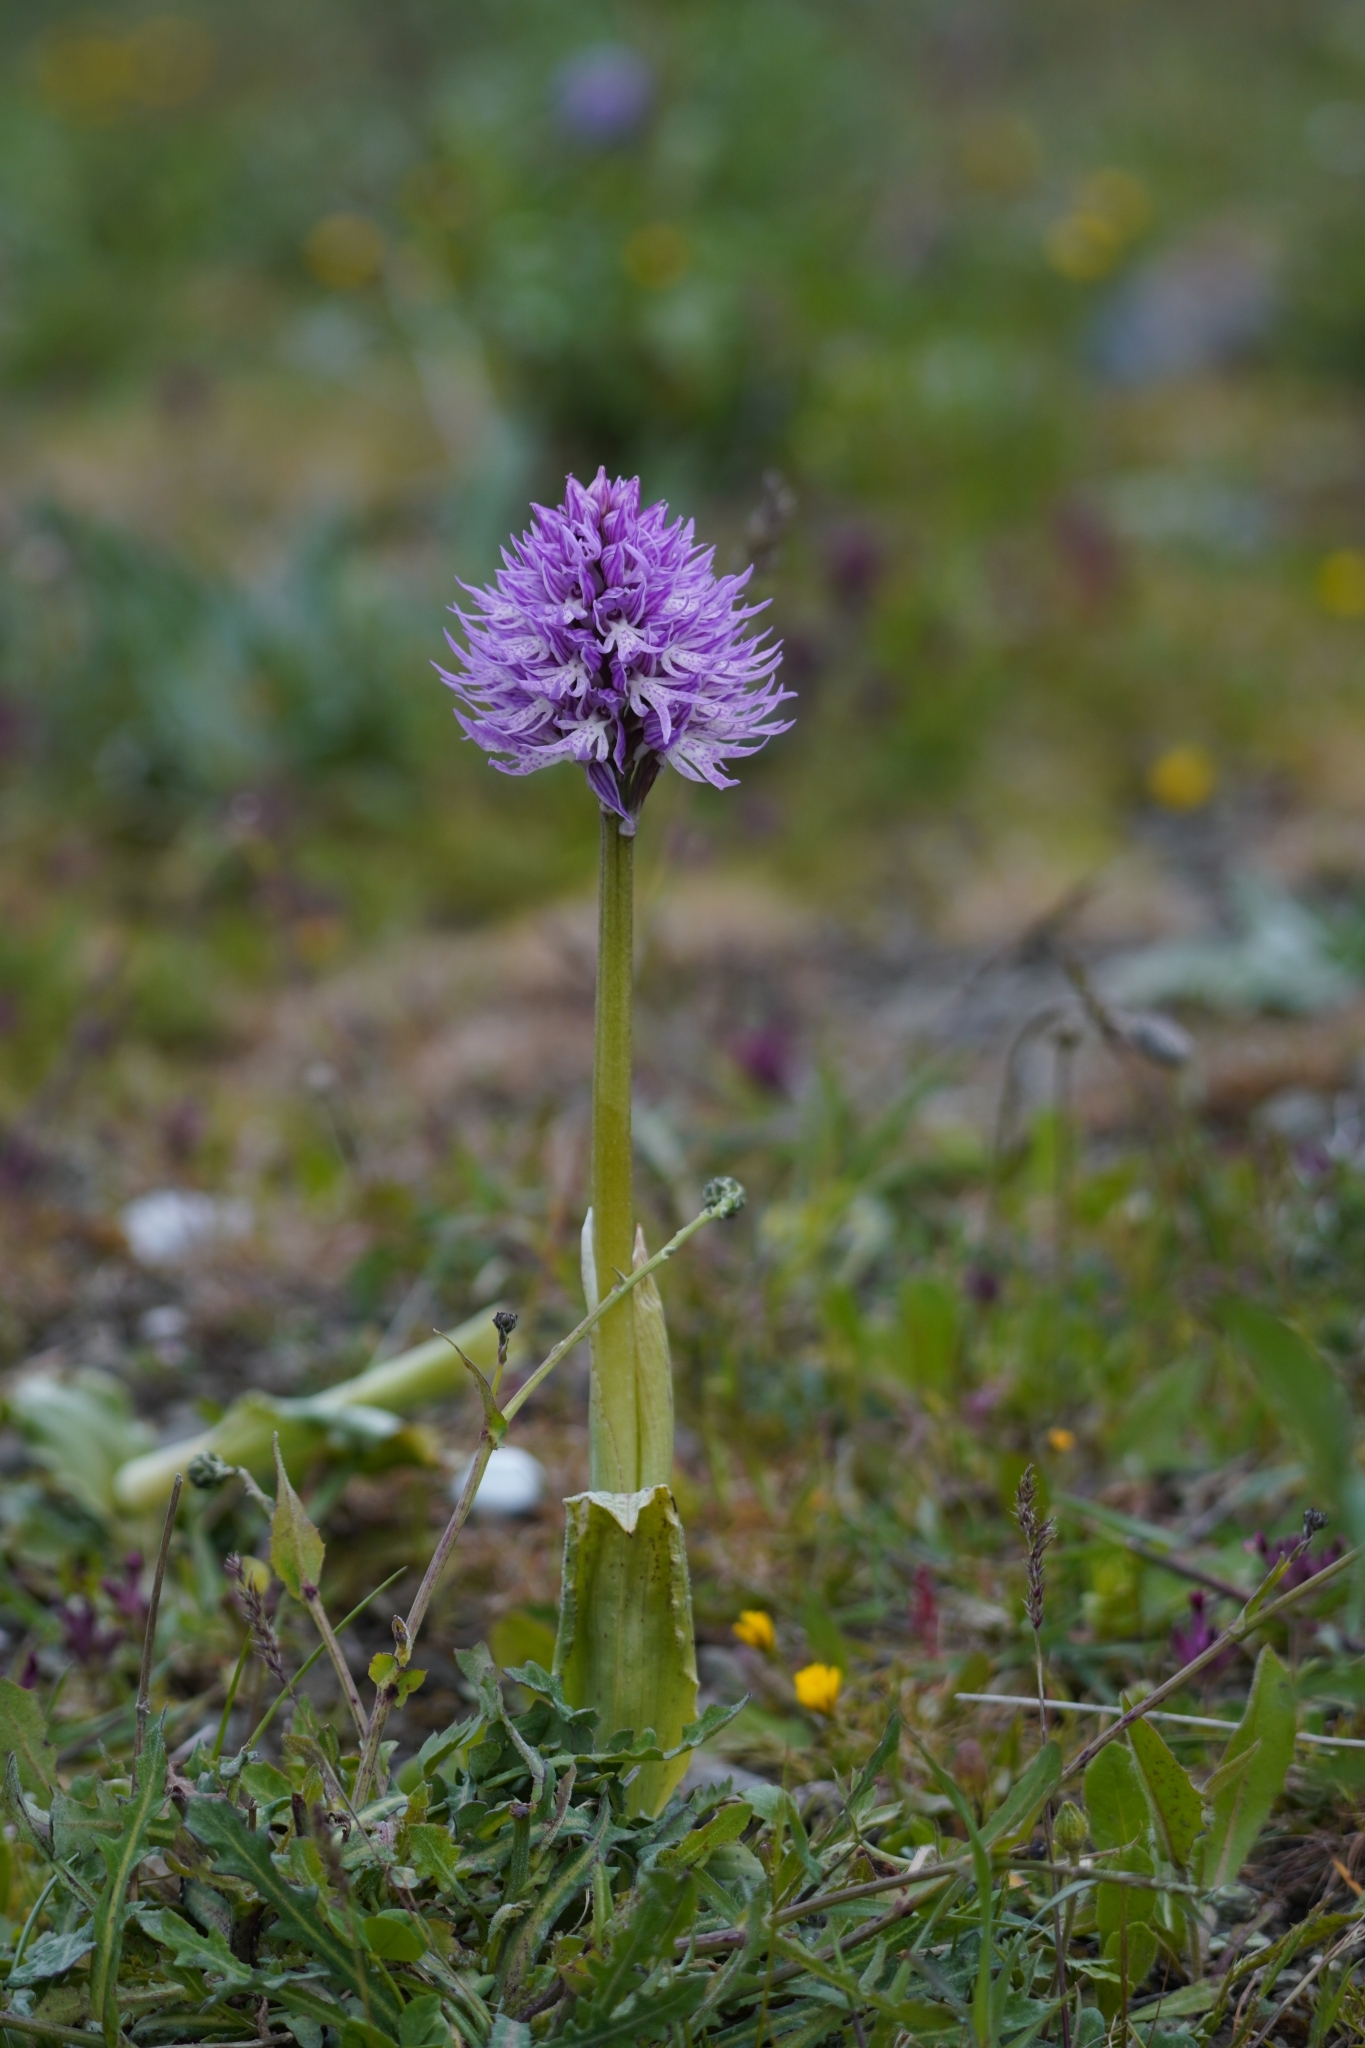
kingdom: Plantae
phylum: Tracheophyta
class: Liliopsida
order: Asparagales
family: Orchidaceae
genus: Orchis
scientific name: Orchis italica
